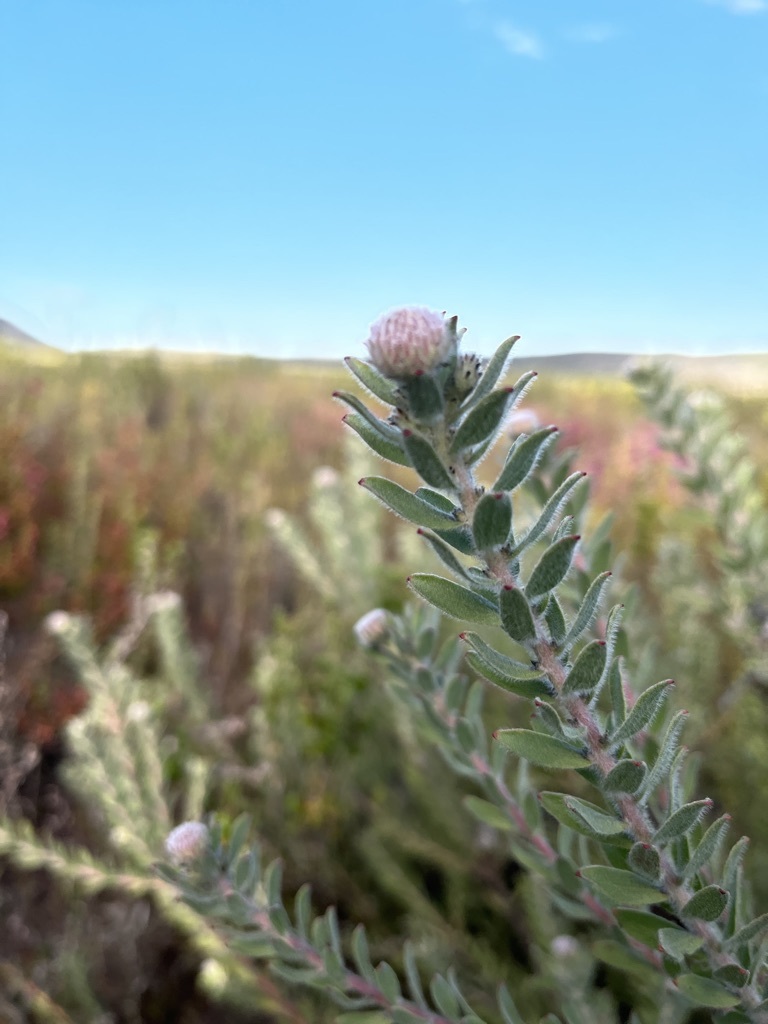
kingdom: Plantae
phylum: Tracheophyta
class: Magnoliopsida
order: Proteales
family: Proteaceae
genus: Leucospermum
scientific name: Leucospermum calligerum
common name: Arid pincushion
